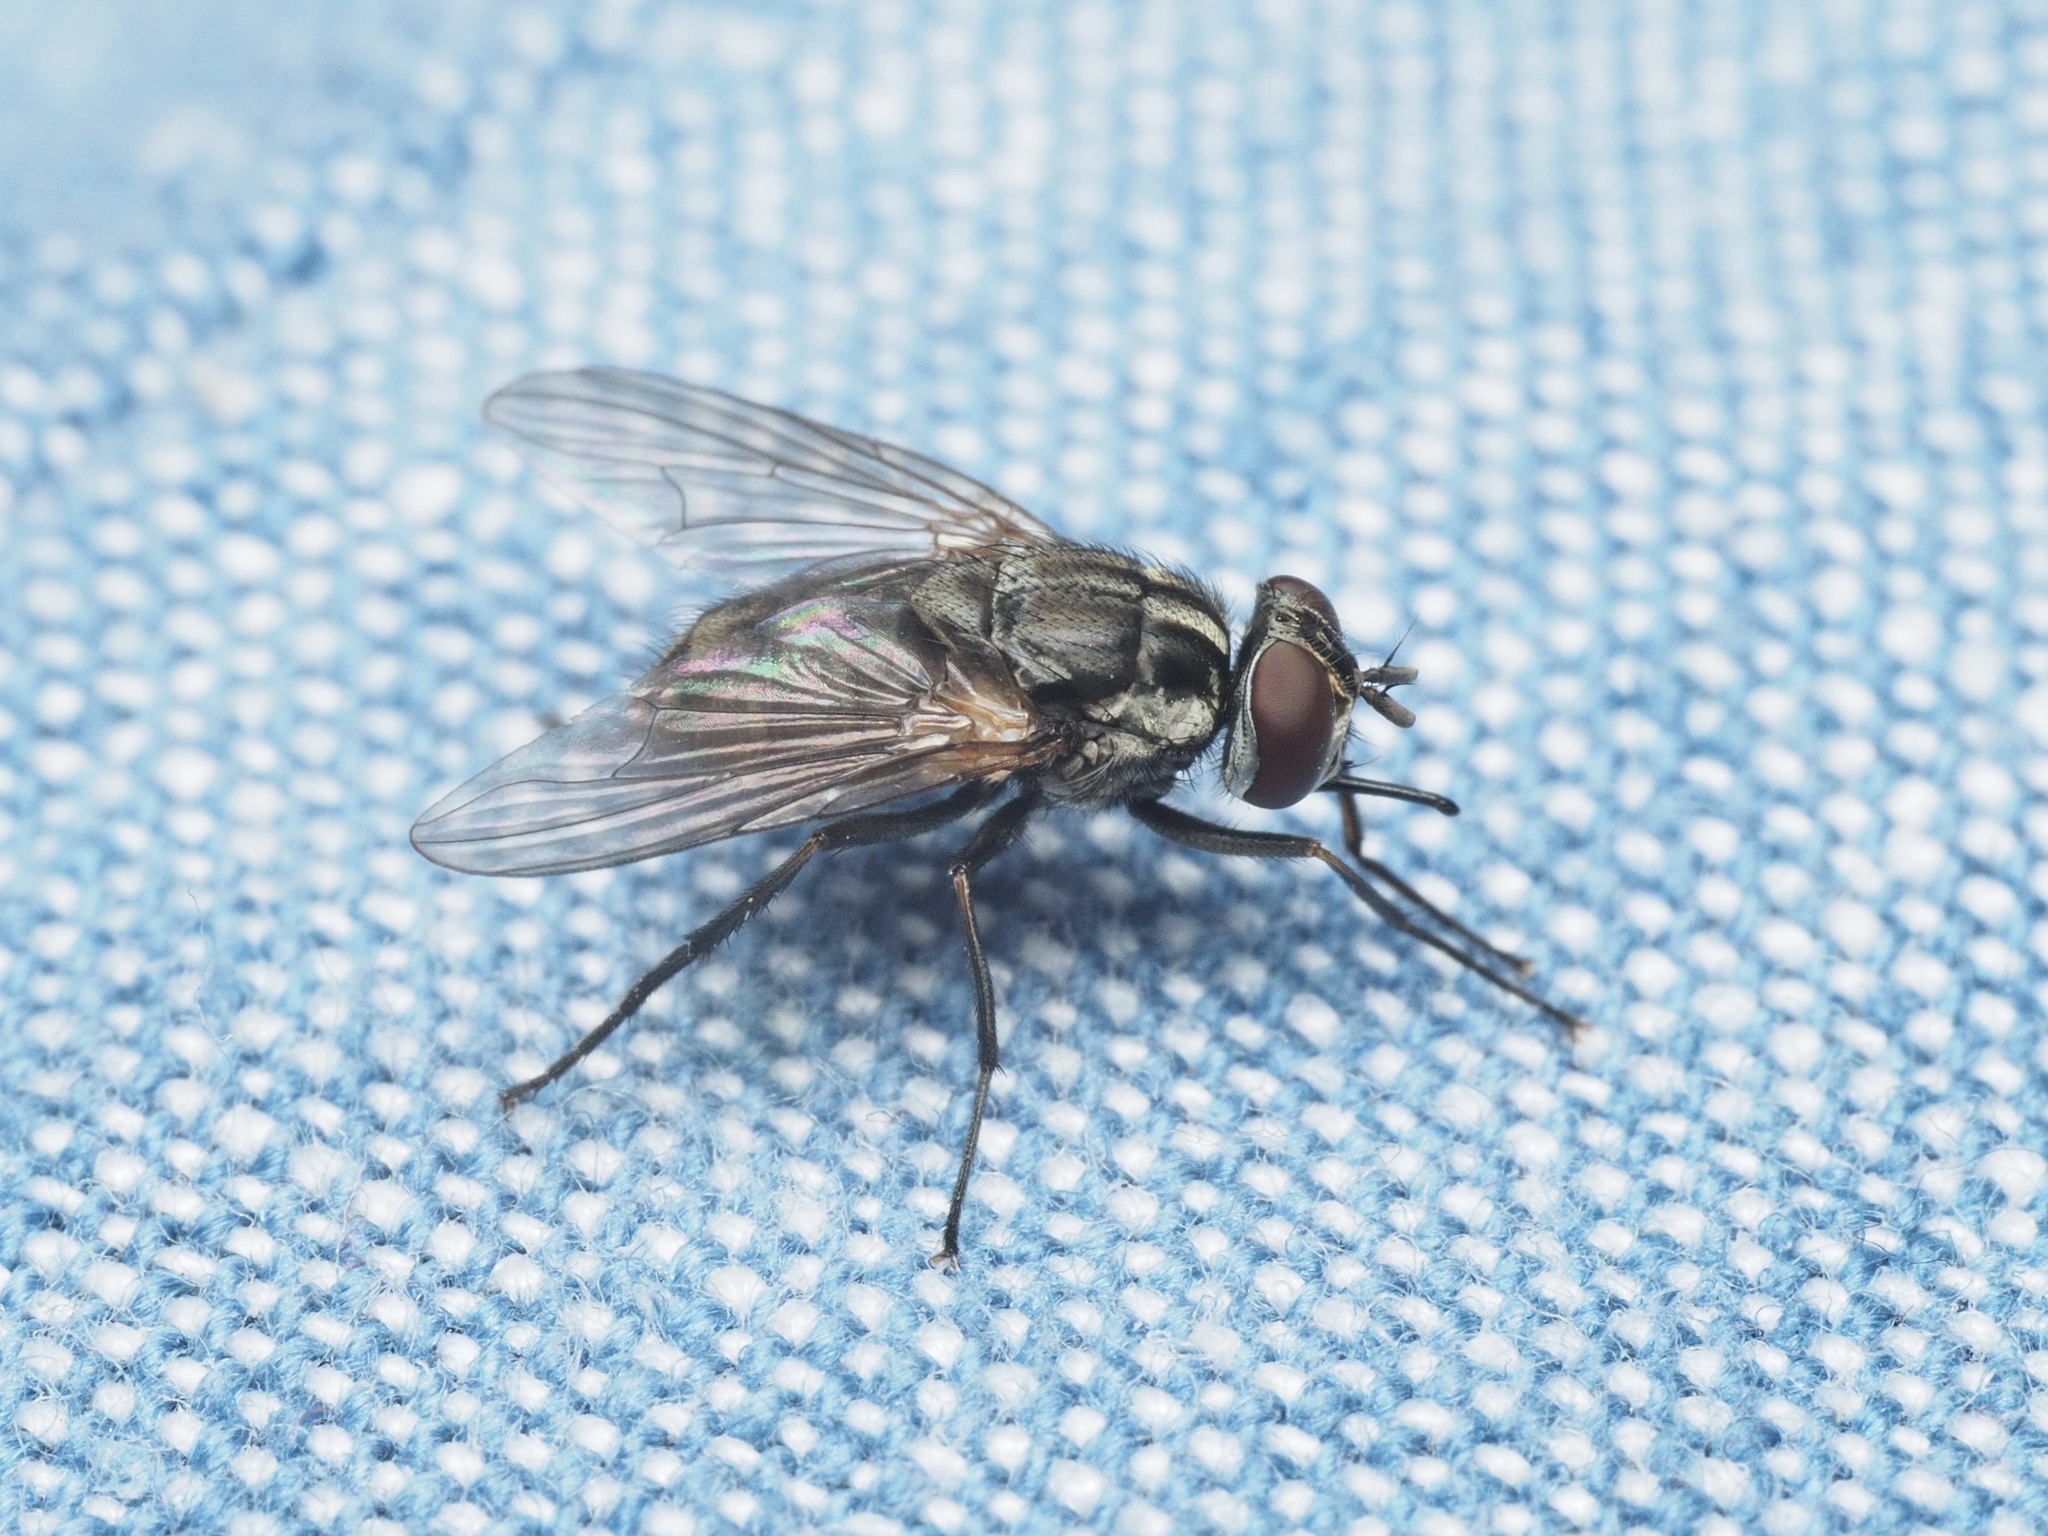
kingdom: Animalia
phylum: Arthropoda
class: Insecta
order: Diptera
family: Muscidae
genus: Stomoxys
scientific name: Stomoxys calcitrans
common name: Stable fly
